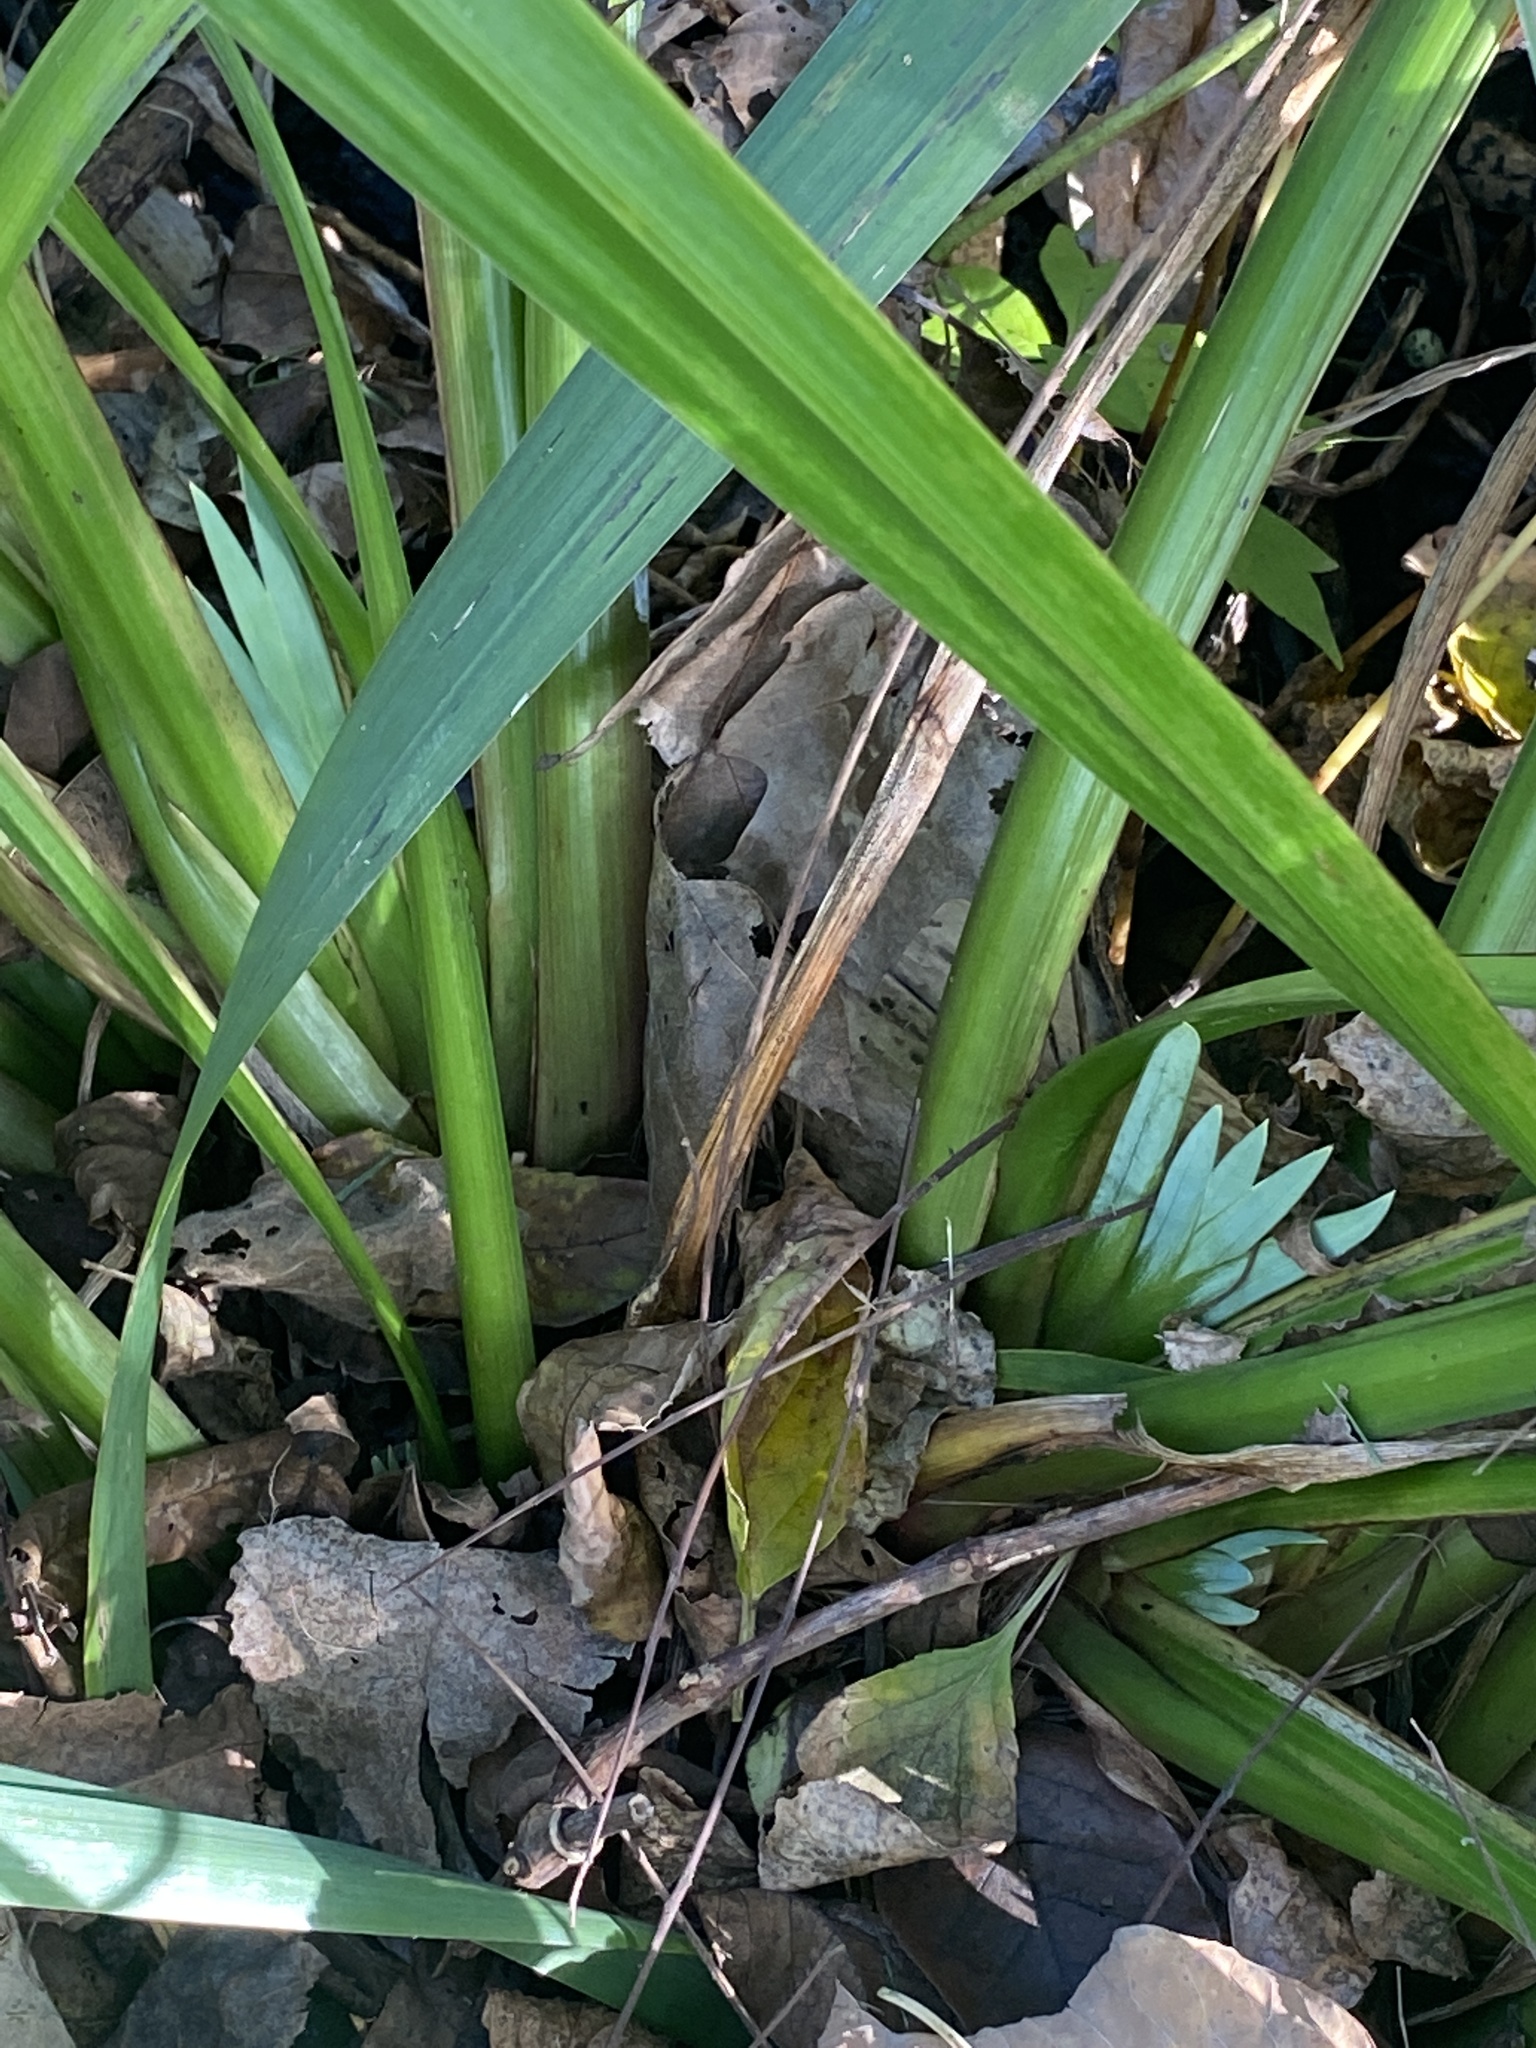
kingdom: Plantae
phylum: Tracheophyta
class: Liliopsida
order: Asparagales
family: Iridaceae
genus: Iris
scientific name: Iris pseudacorus
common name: Yellow flag
